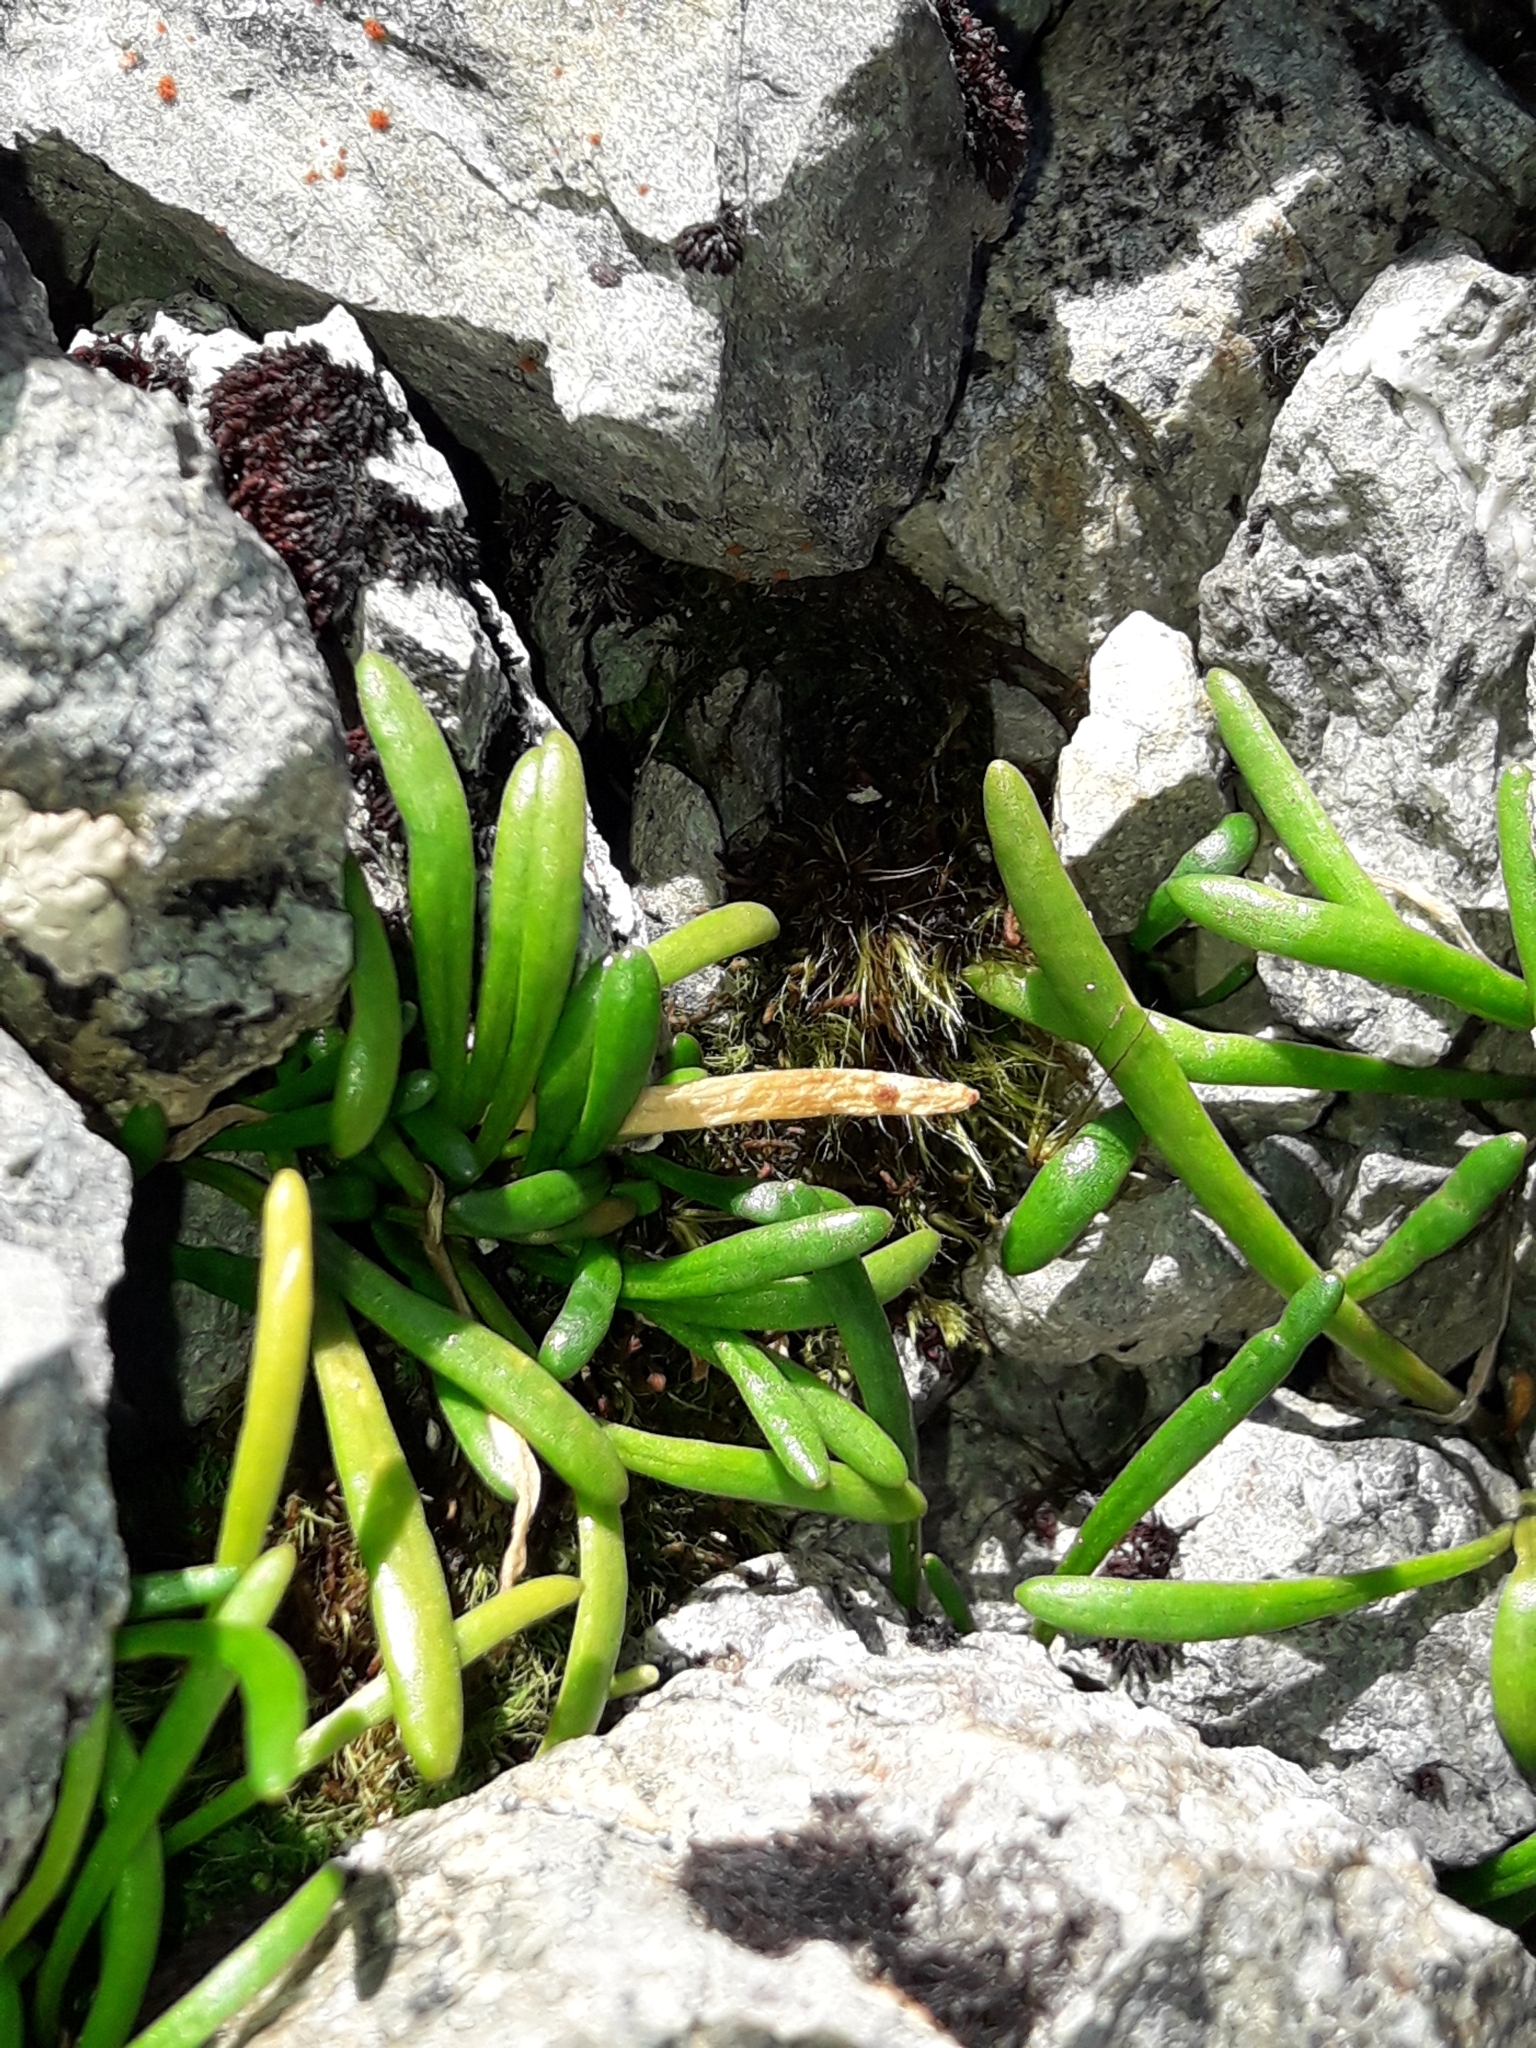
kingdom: Plantae
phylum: Tracheophyta
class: Magnoliopsida
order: Caryophyllales
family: Montiaceae
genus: Montia
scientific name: Montia calycina
